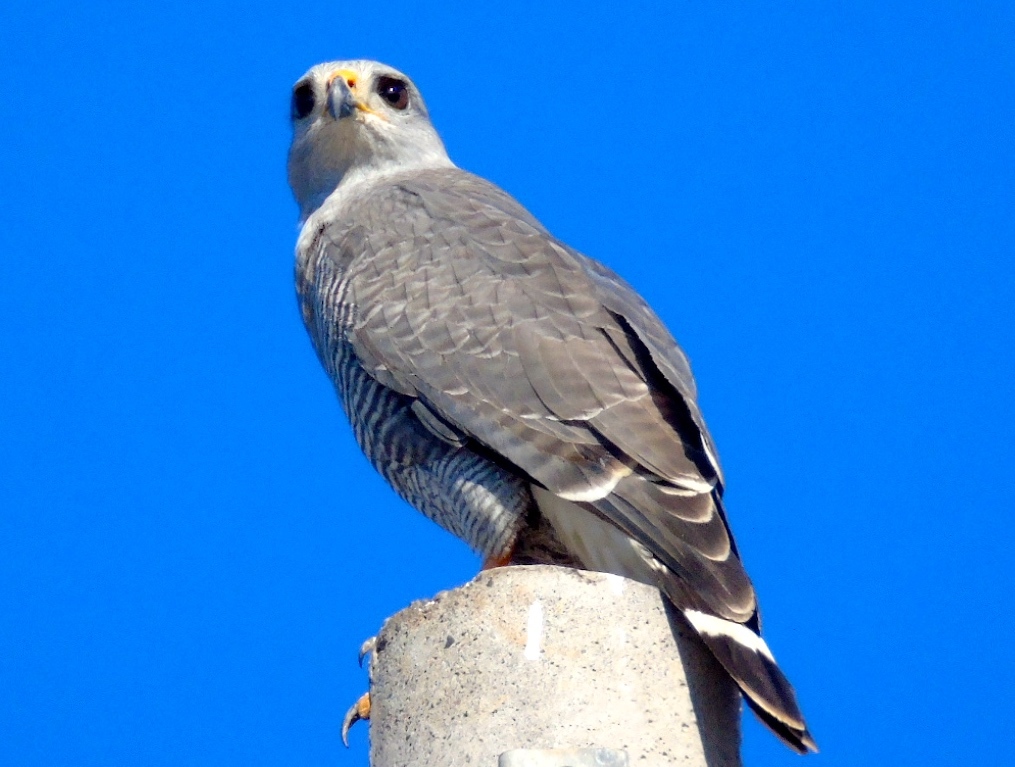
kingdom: Animalia
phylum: Chordata
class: Aves
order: Accipitriformes
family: Accipitridae
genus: Buteo
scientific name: Buteo nitidus
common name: Grey-lined hawk
